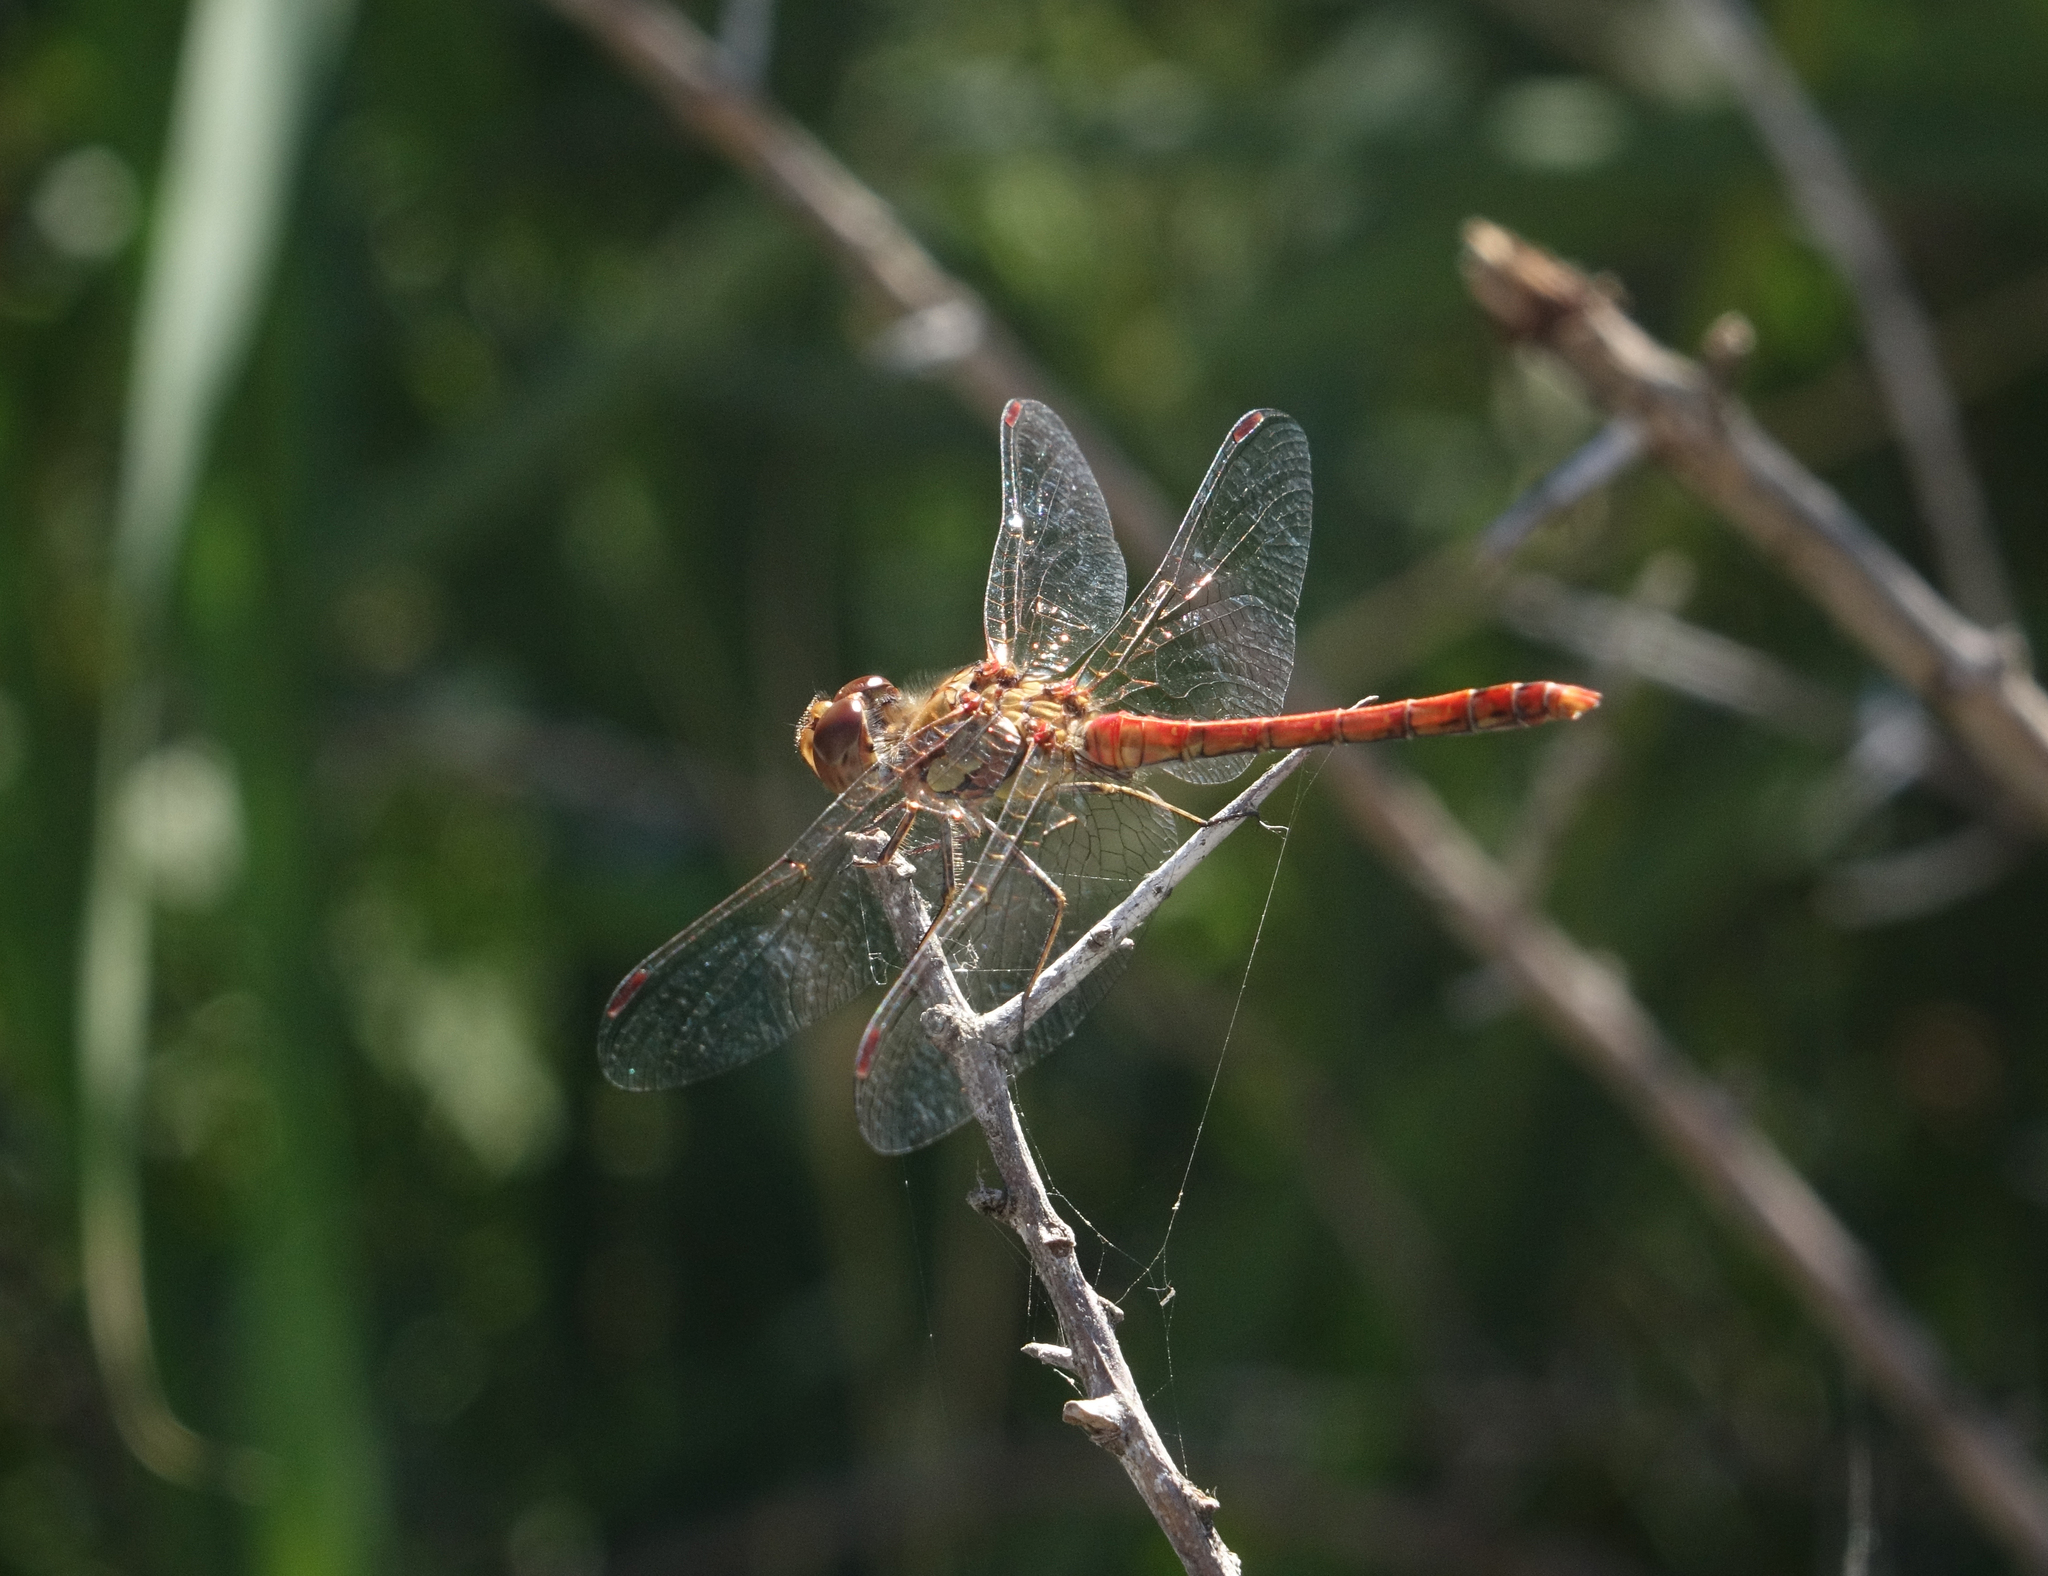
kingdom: Animalia
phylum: Arthropoda
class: Insecta
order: Odonata
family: Libellulidae
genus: Sympetrum
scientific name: Sympetrum striolatum
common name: Common darter
